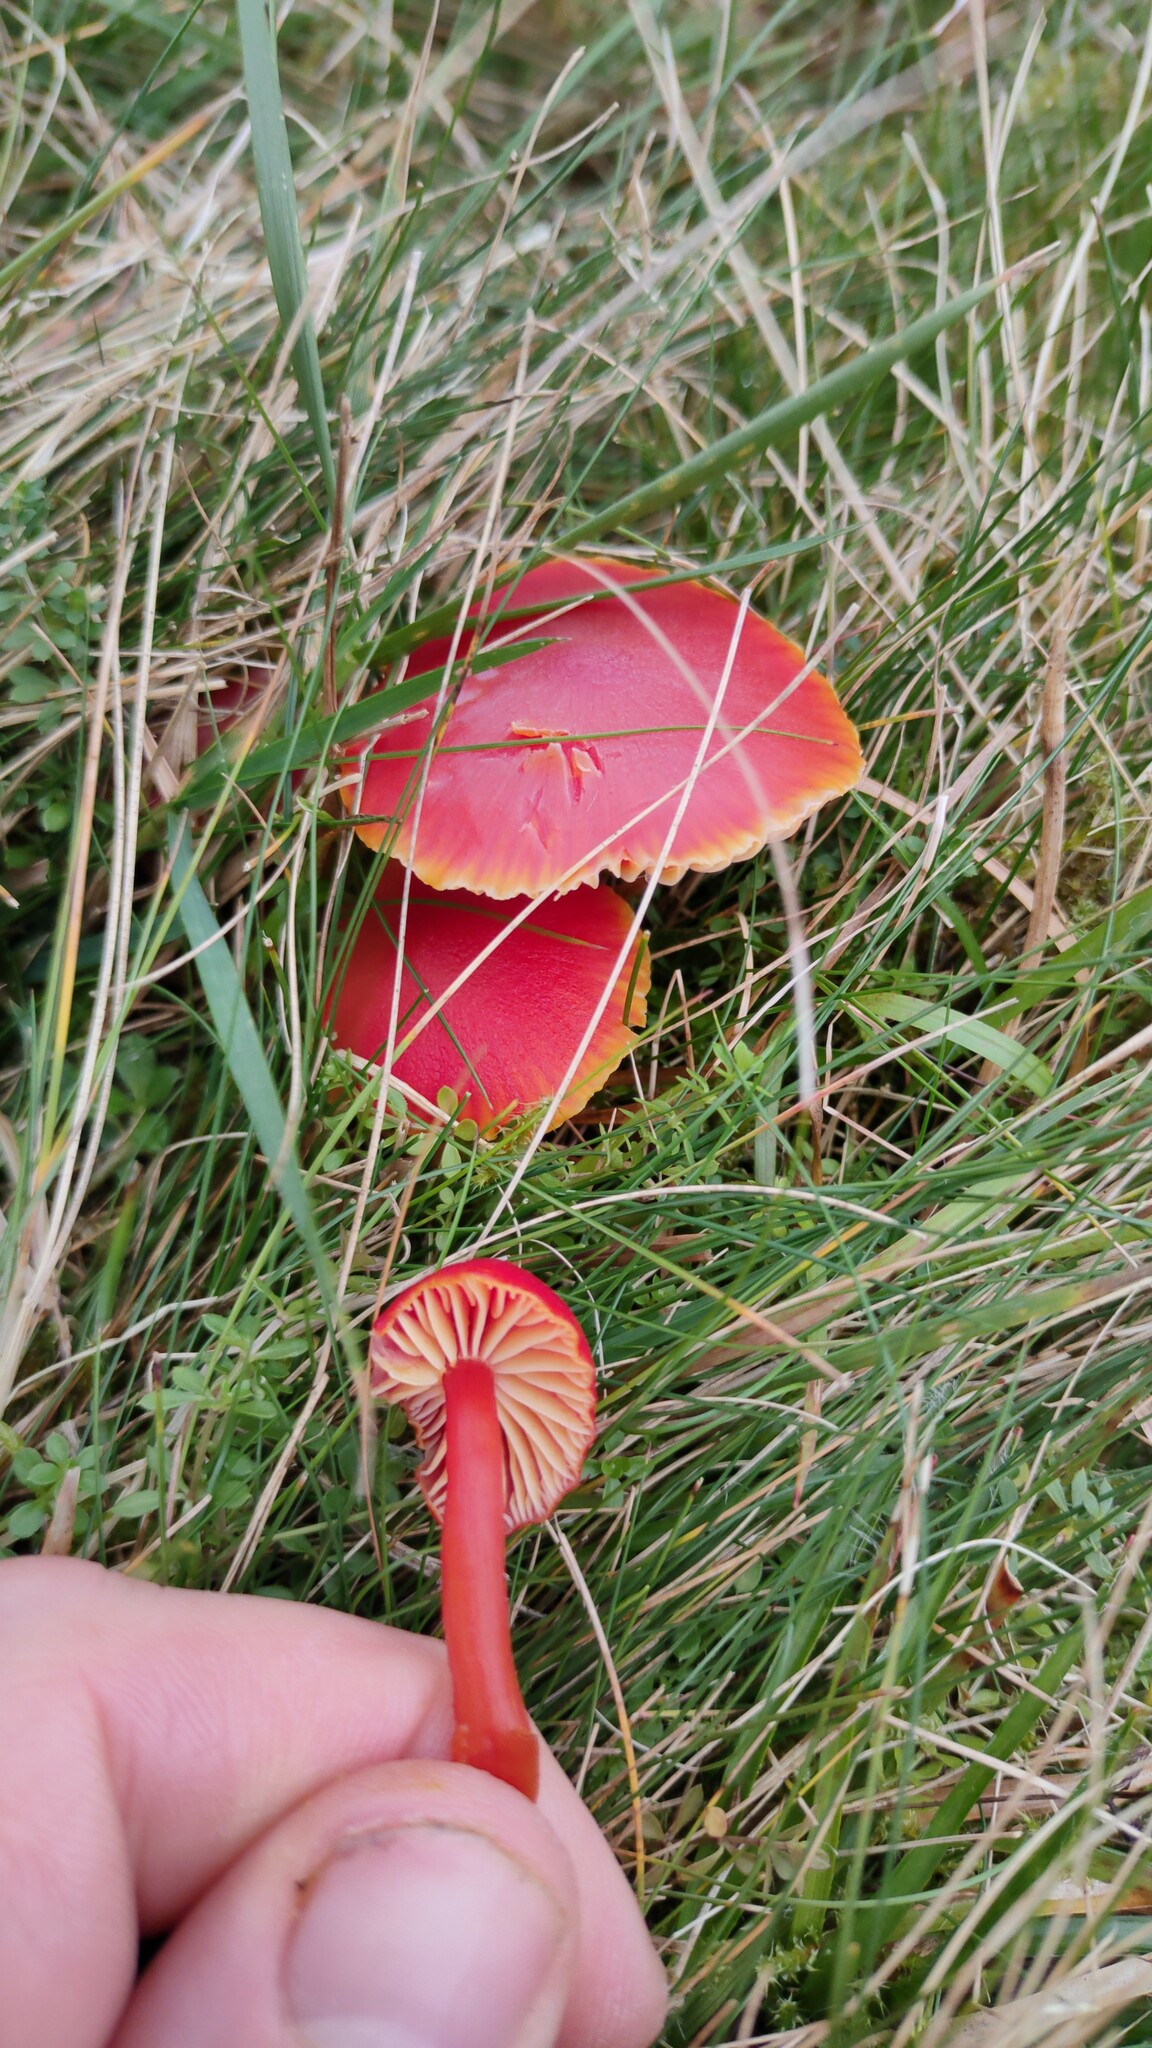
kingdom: Fungi
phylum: Basidiomycota
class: Agaricomycetes
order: Agaricales
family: Hygrophoraceae
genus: Hygrocybe
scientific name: Hygrocybe coccinea
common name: Scarlet hood
